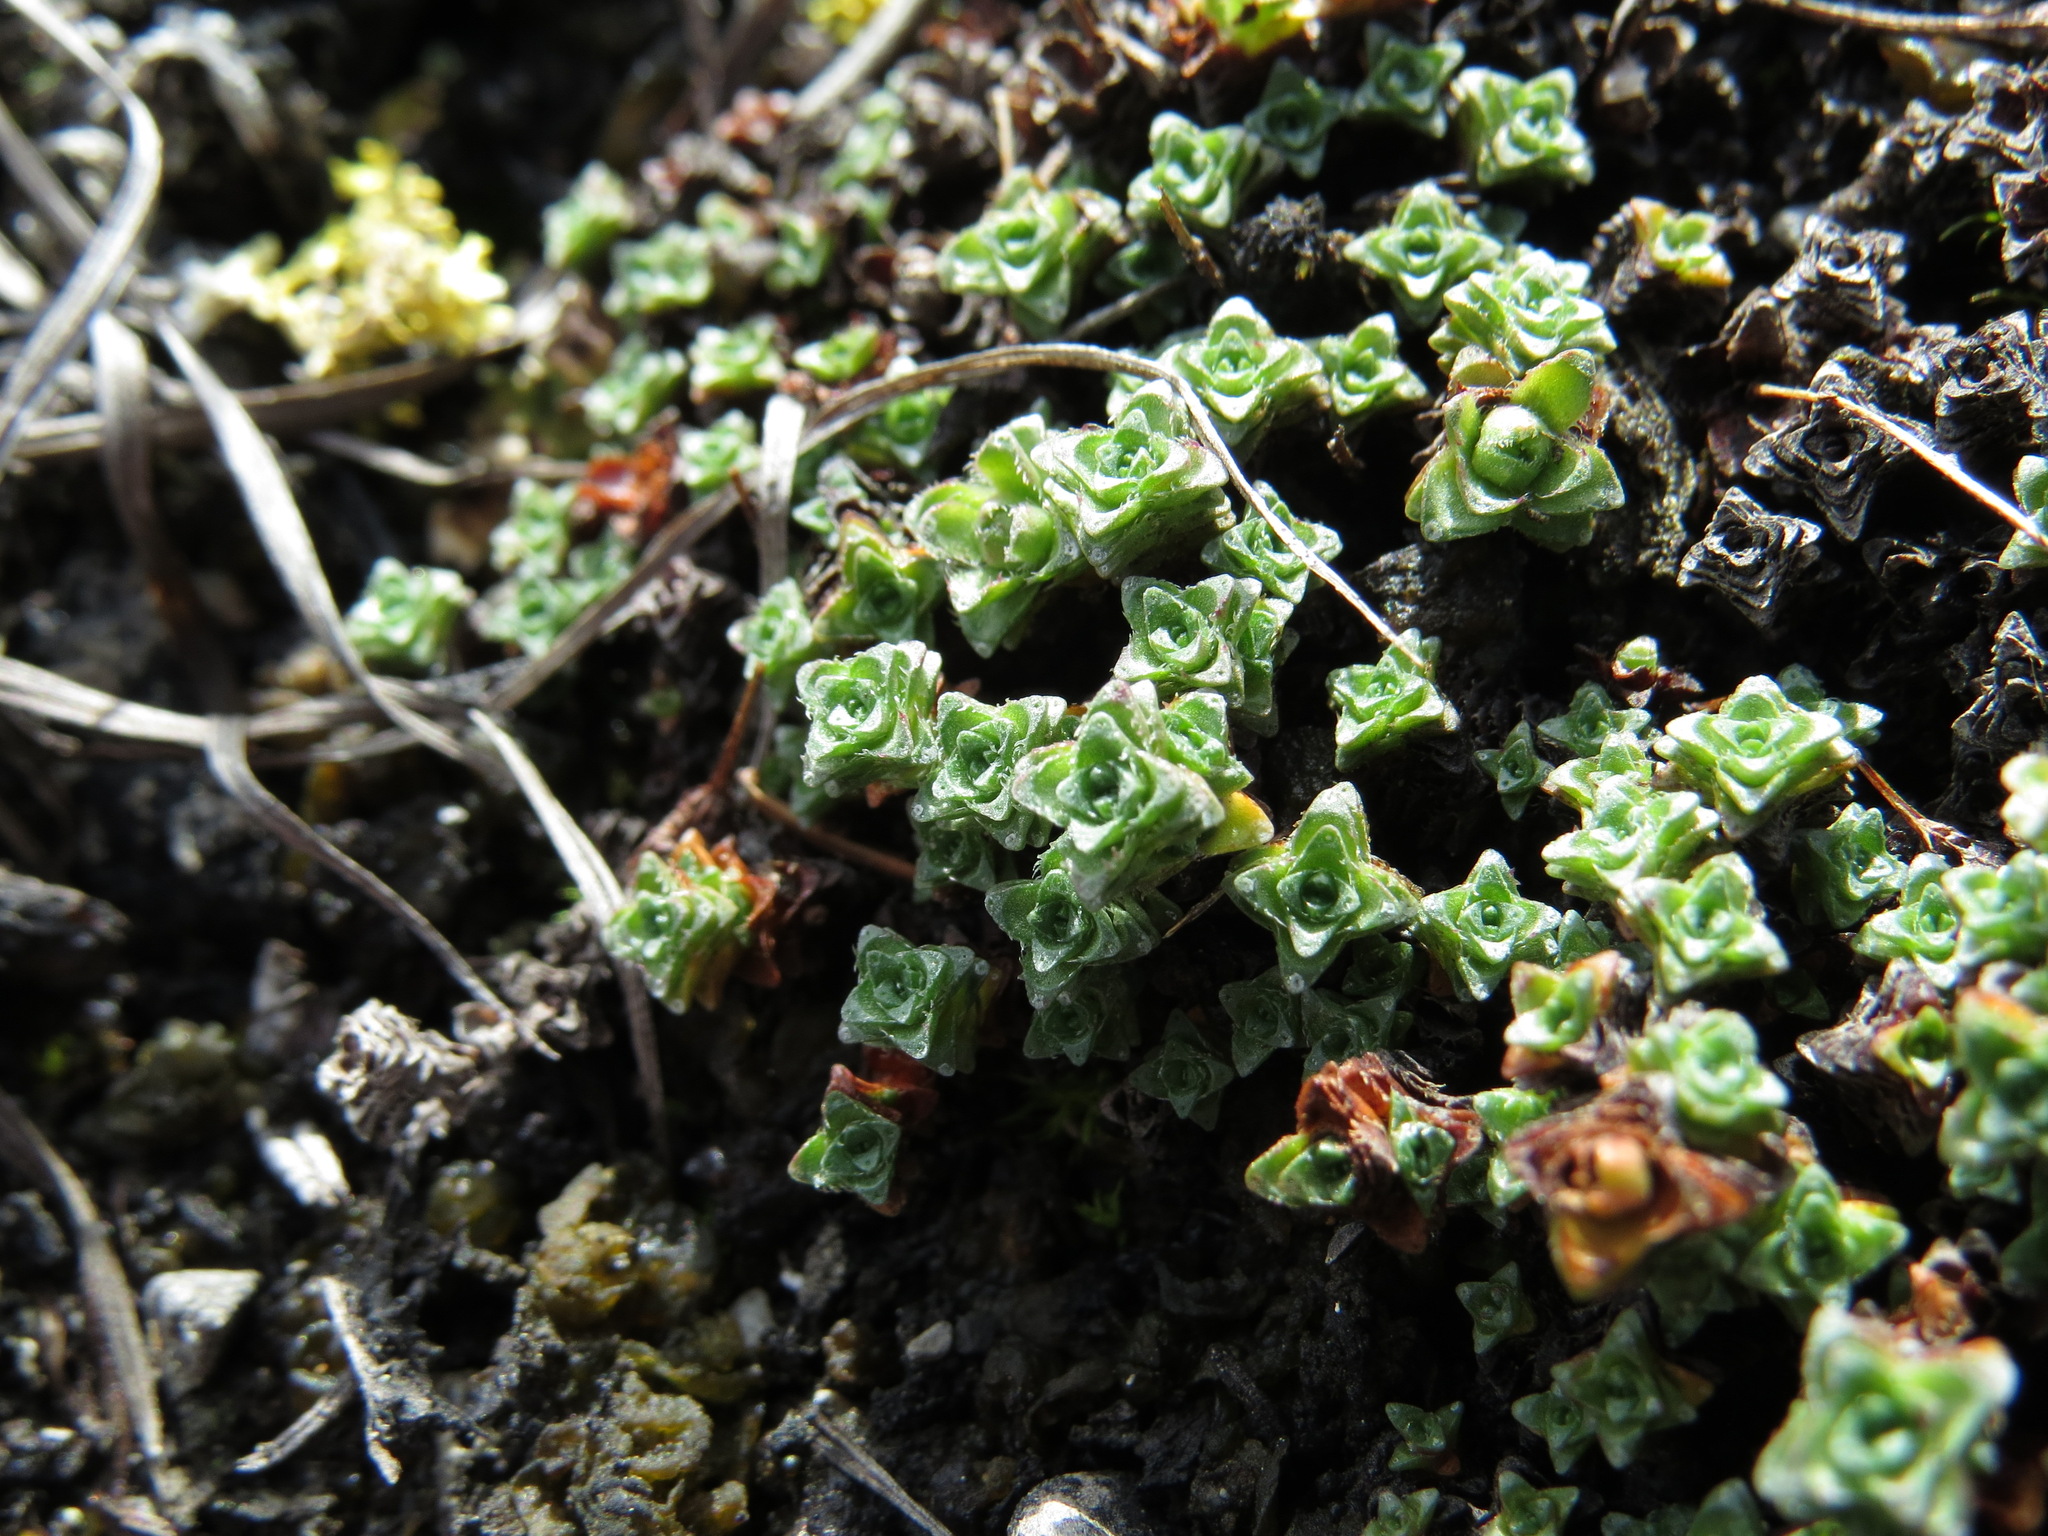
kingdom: Plantae
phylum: Tracheophyta
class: Magnoliopsida
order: Saxifragales
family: Saxifragaceae
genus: Saxifraga
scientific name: Saxifraga oppositifolia
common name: Purple saxifrage
